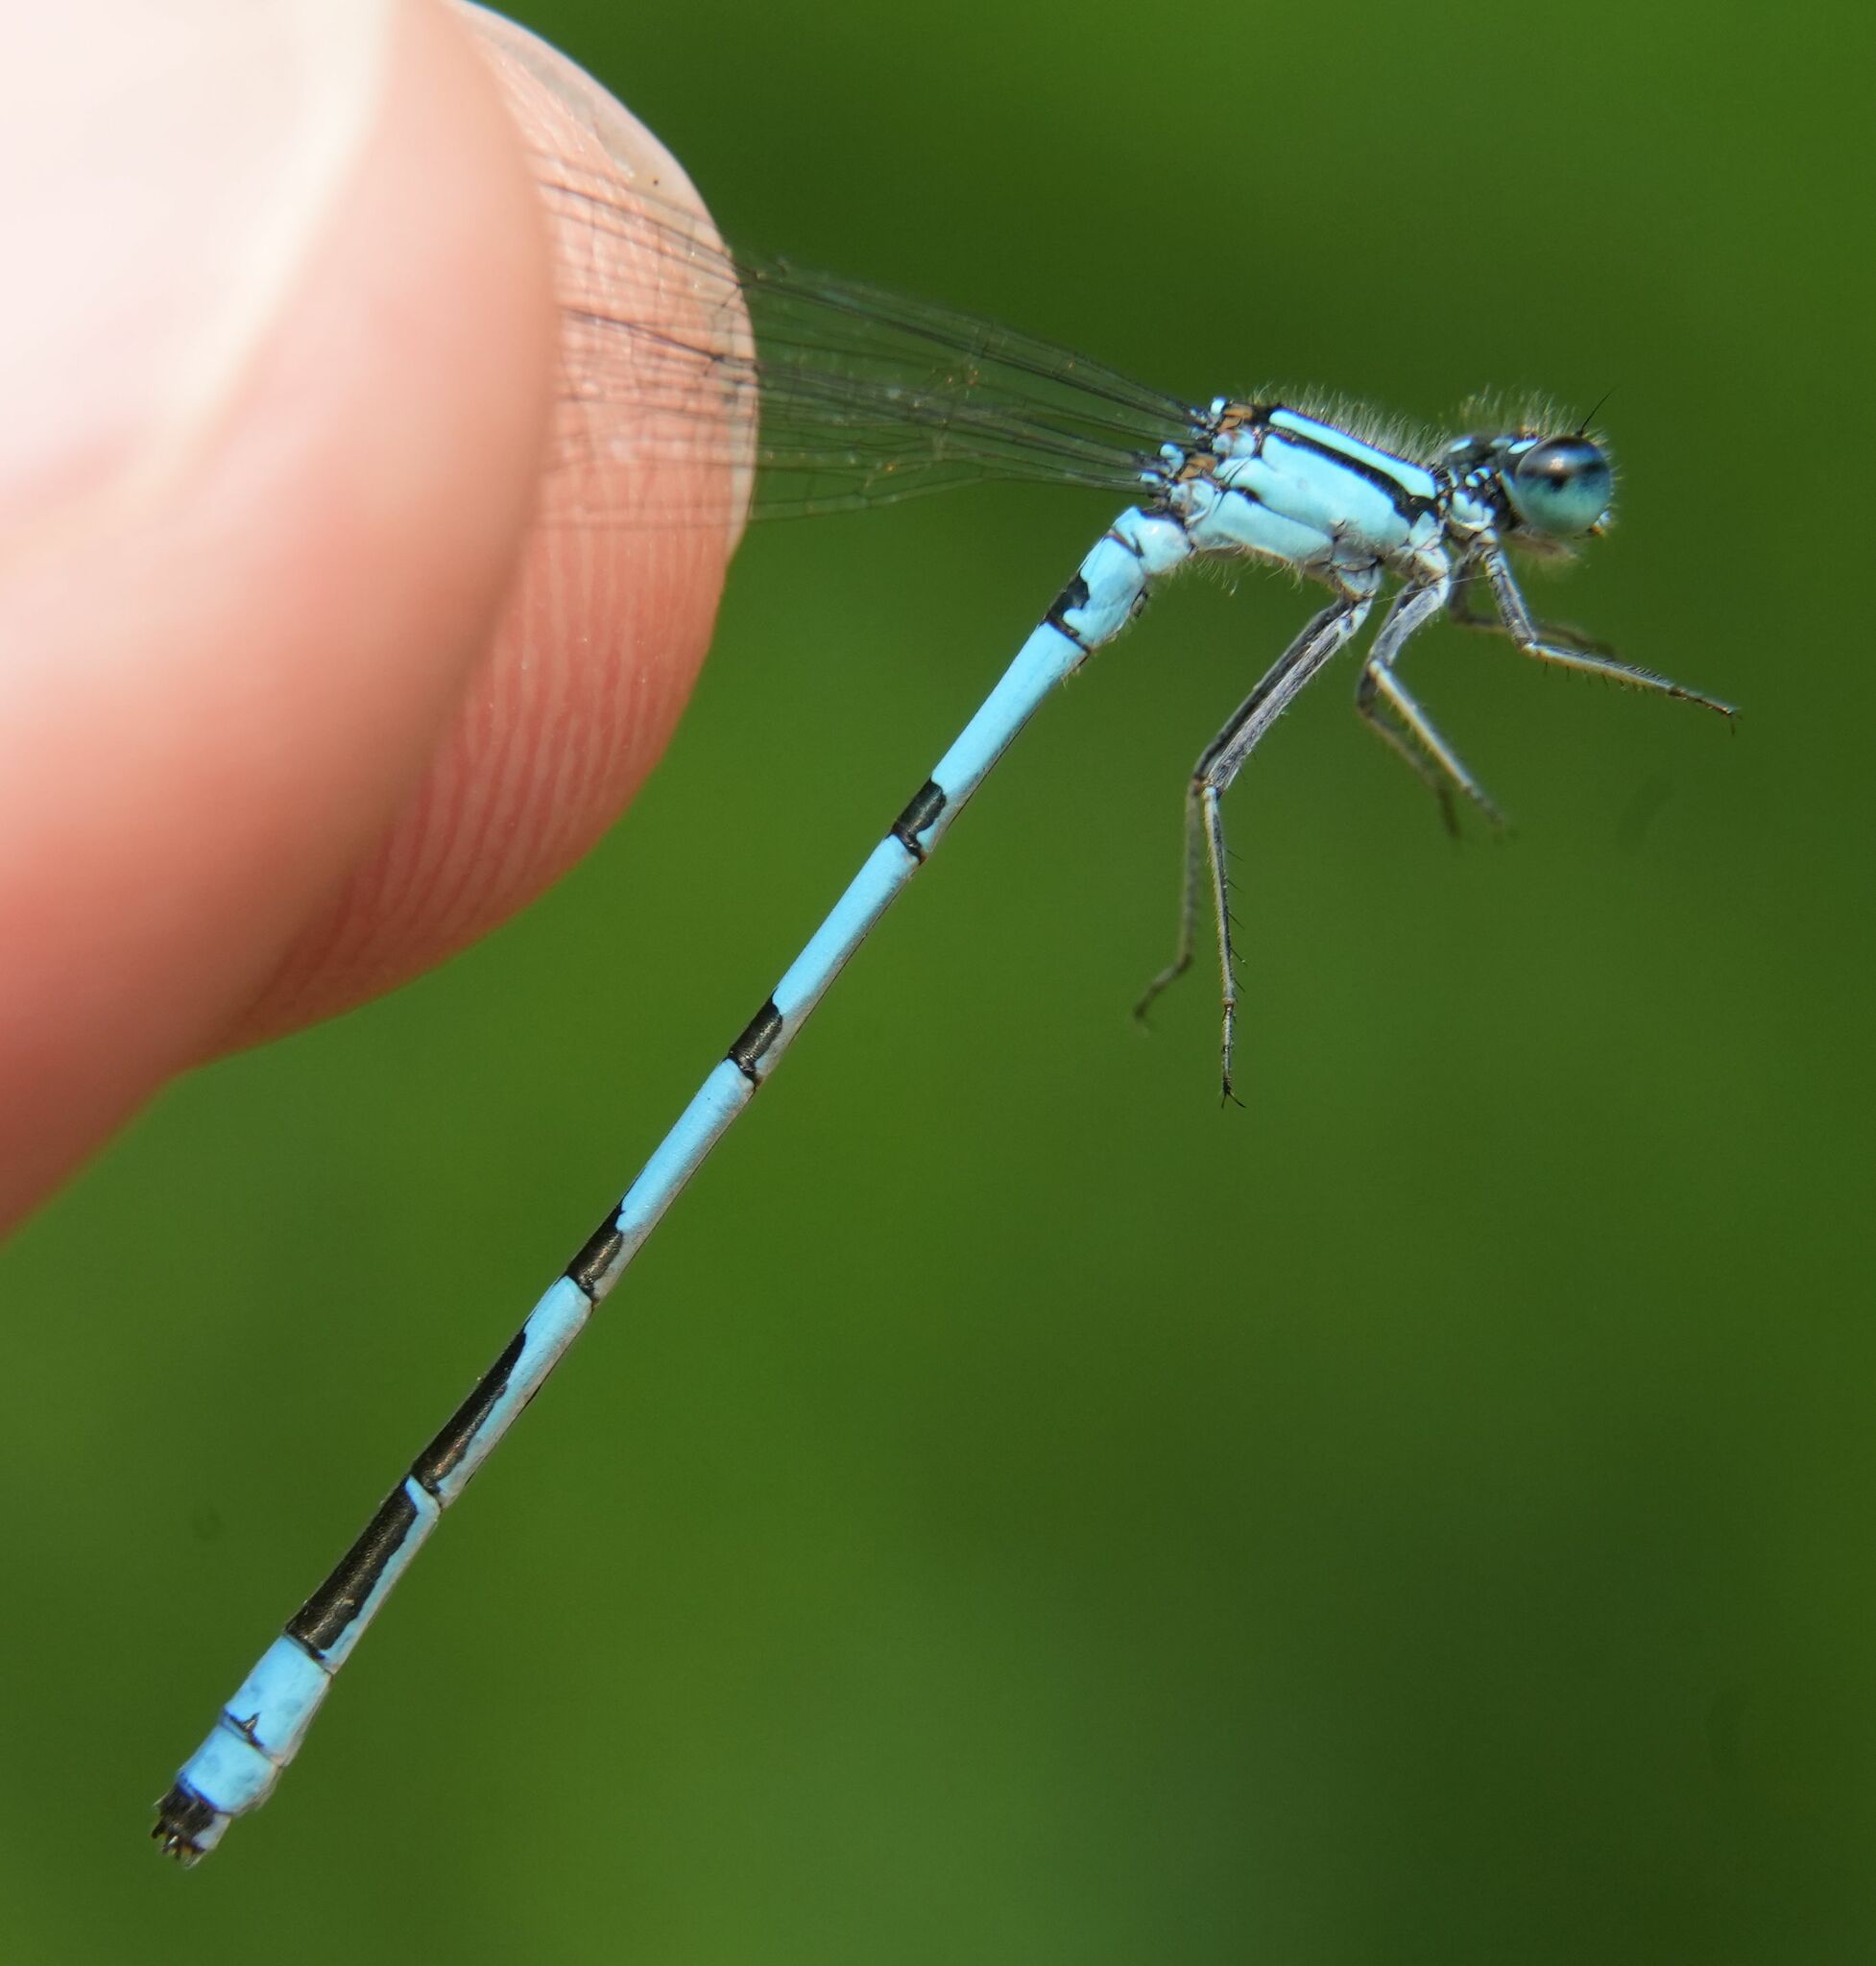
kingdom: Animalia
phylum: Arthropoda
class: Insecta
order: Odonata
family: Coenagrionidae
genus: Enallagma
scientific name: Enallagma ebrium
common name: Marsh bluet
